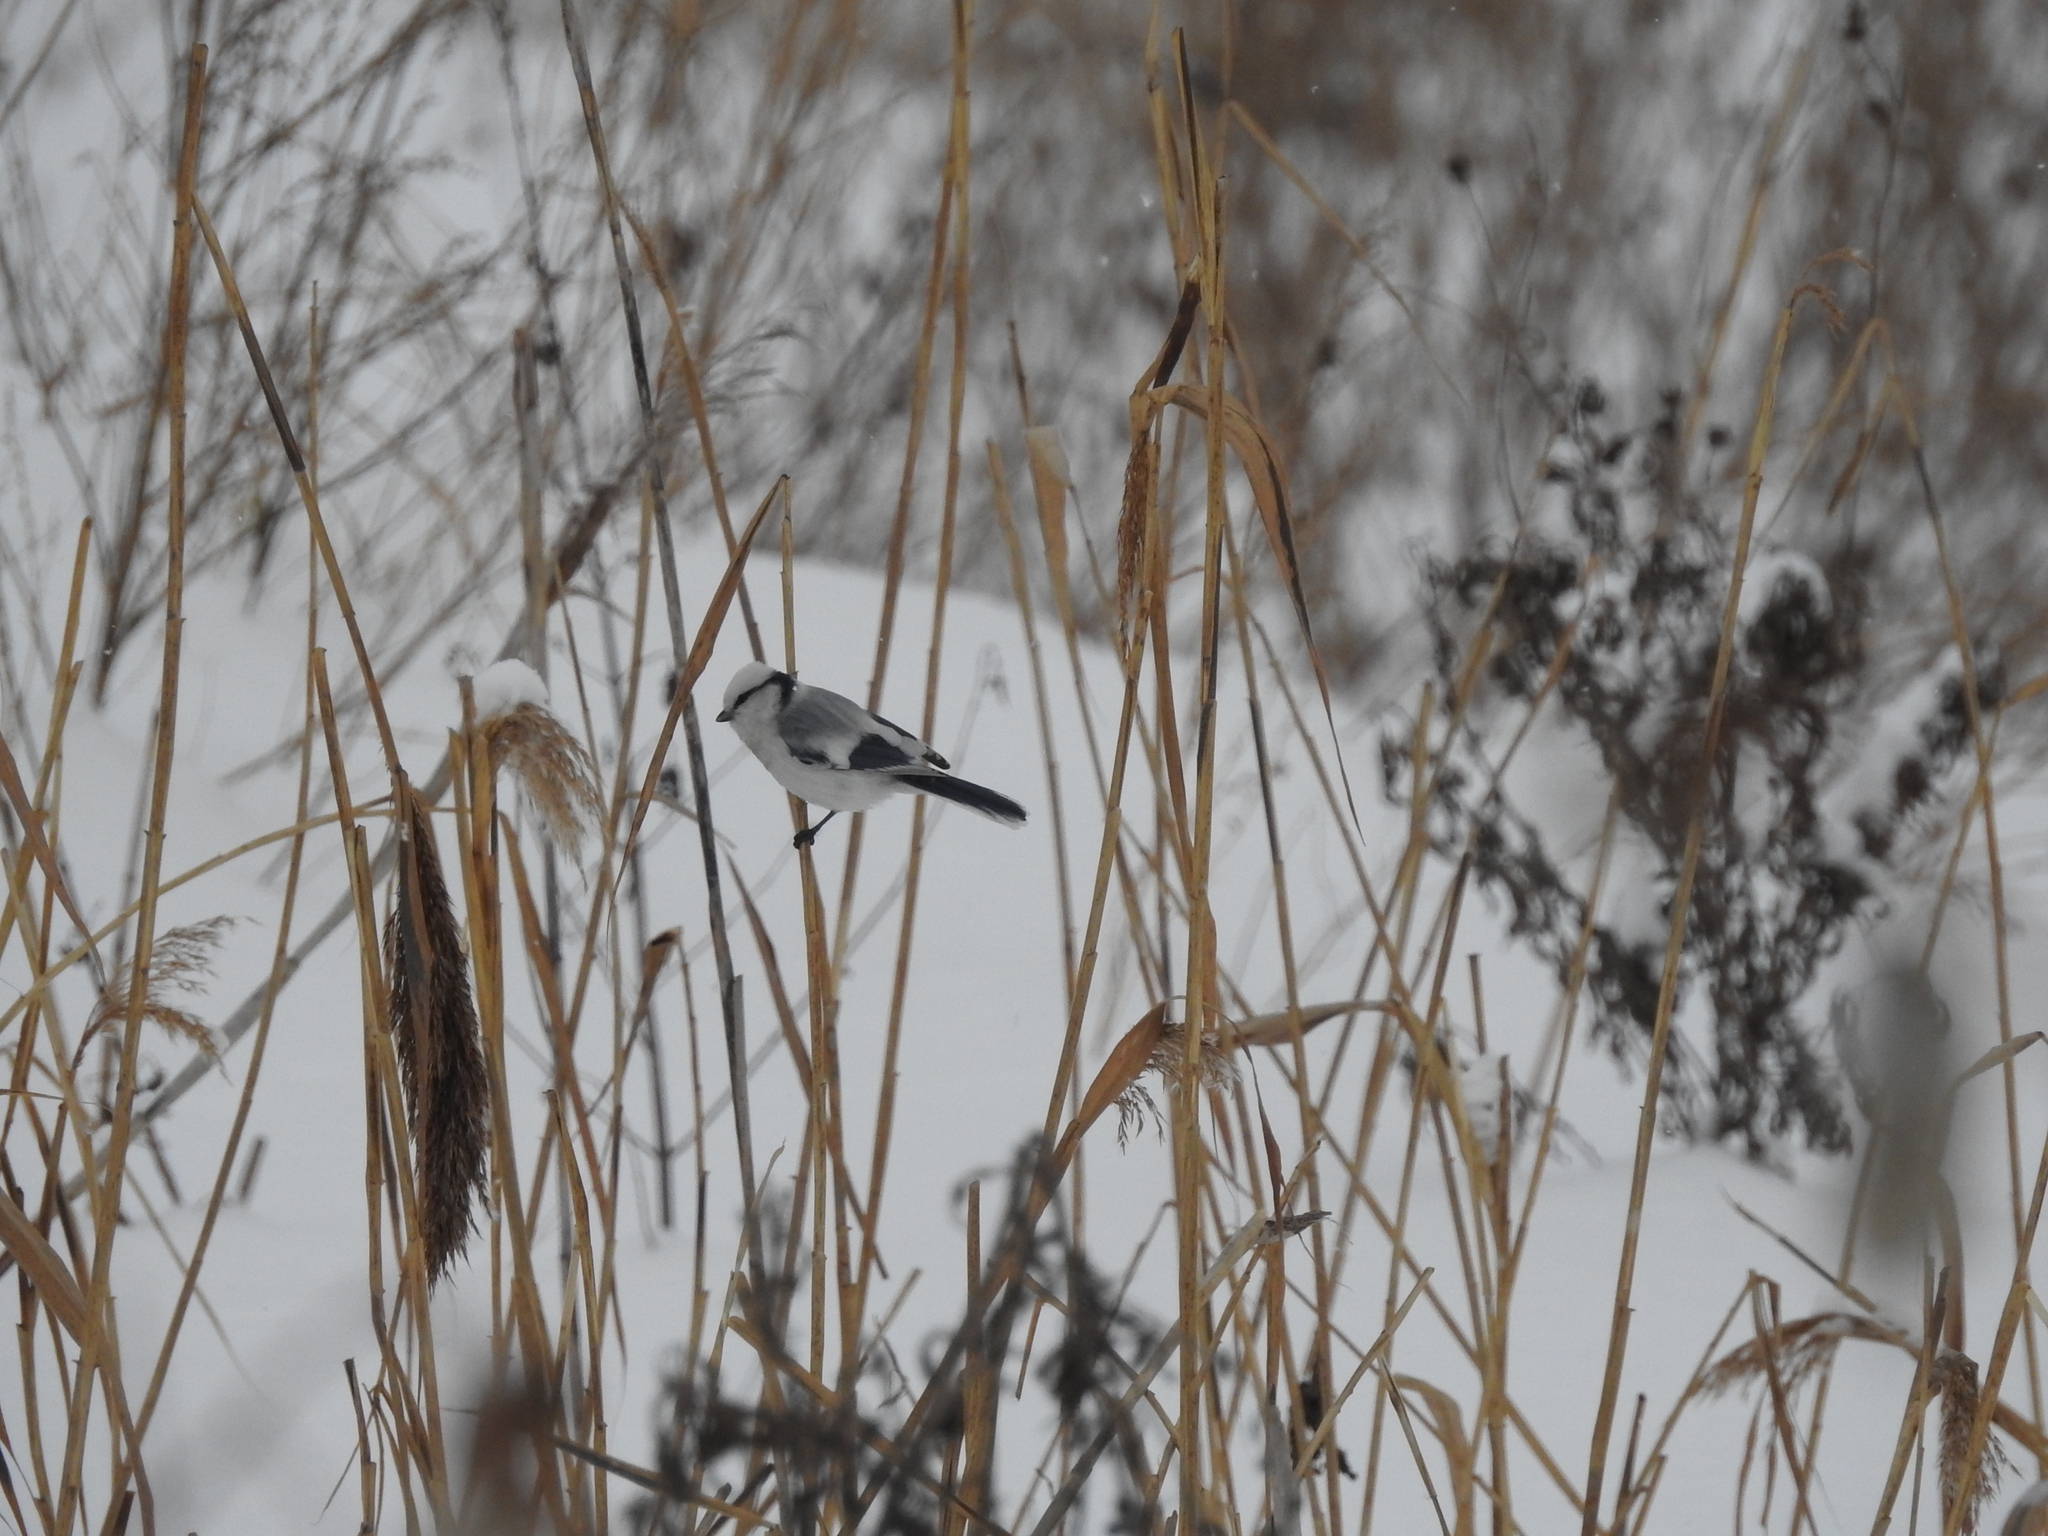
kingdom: Animalia
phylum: Chordata
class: Aves
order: Passeriformes
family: Paridae
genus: Cyanistes
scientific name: Cyanistes cyanus
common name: Azure tit
